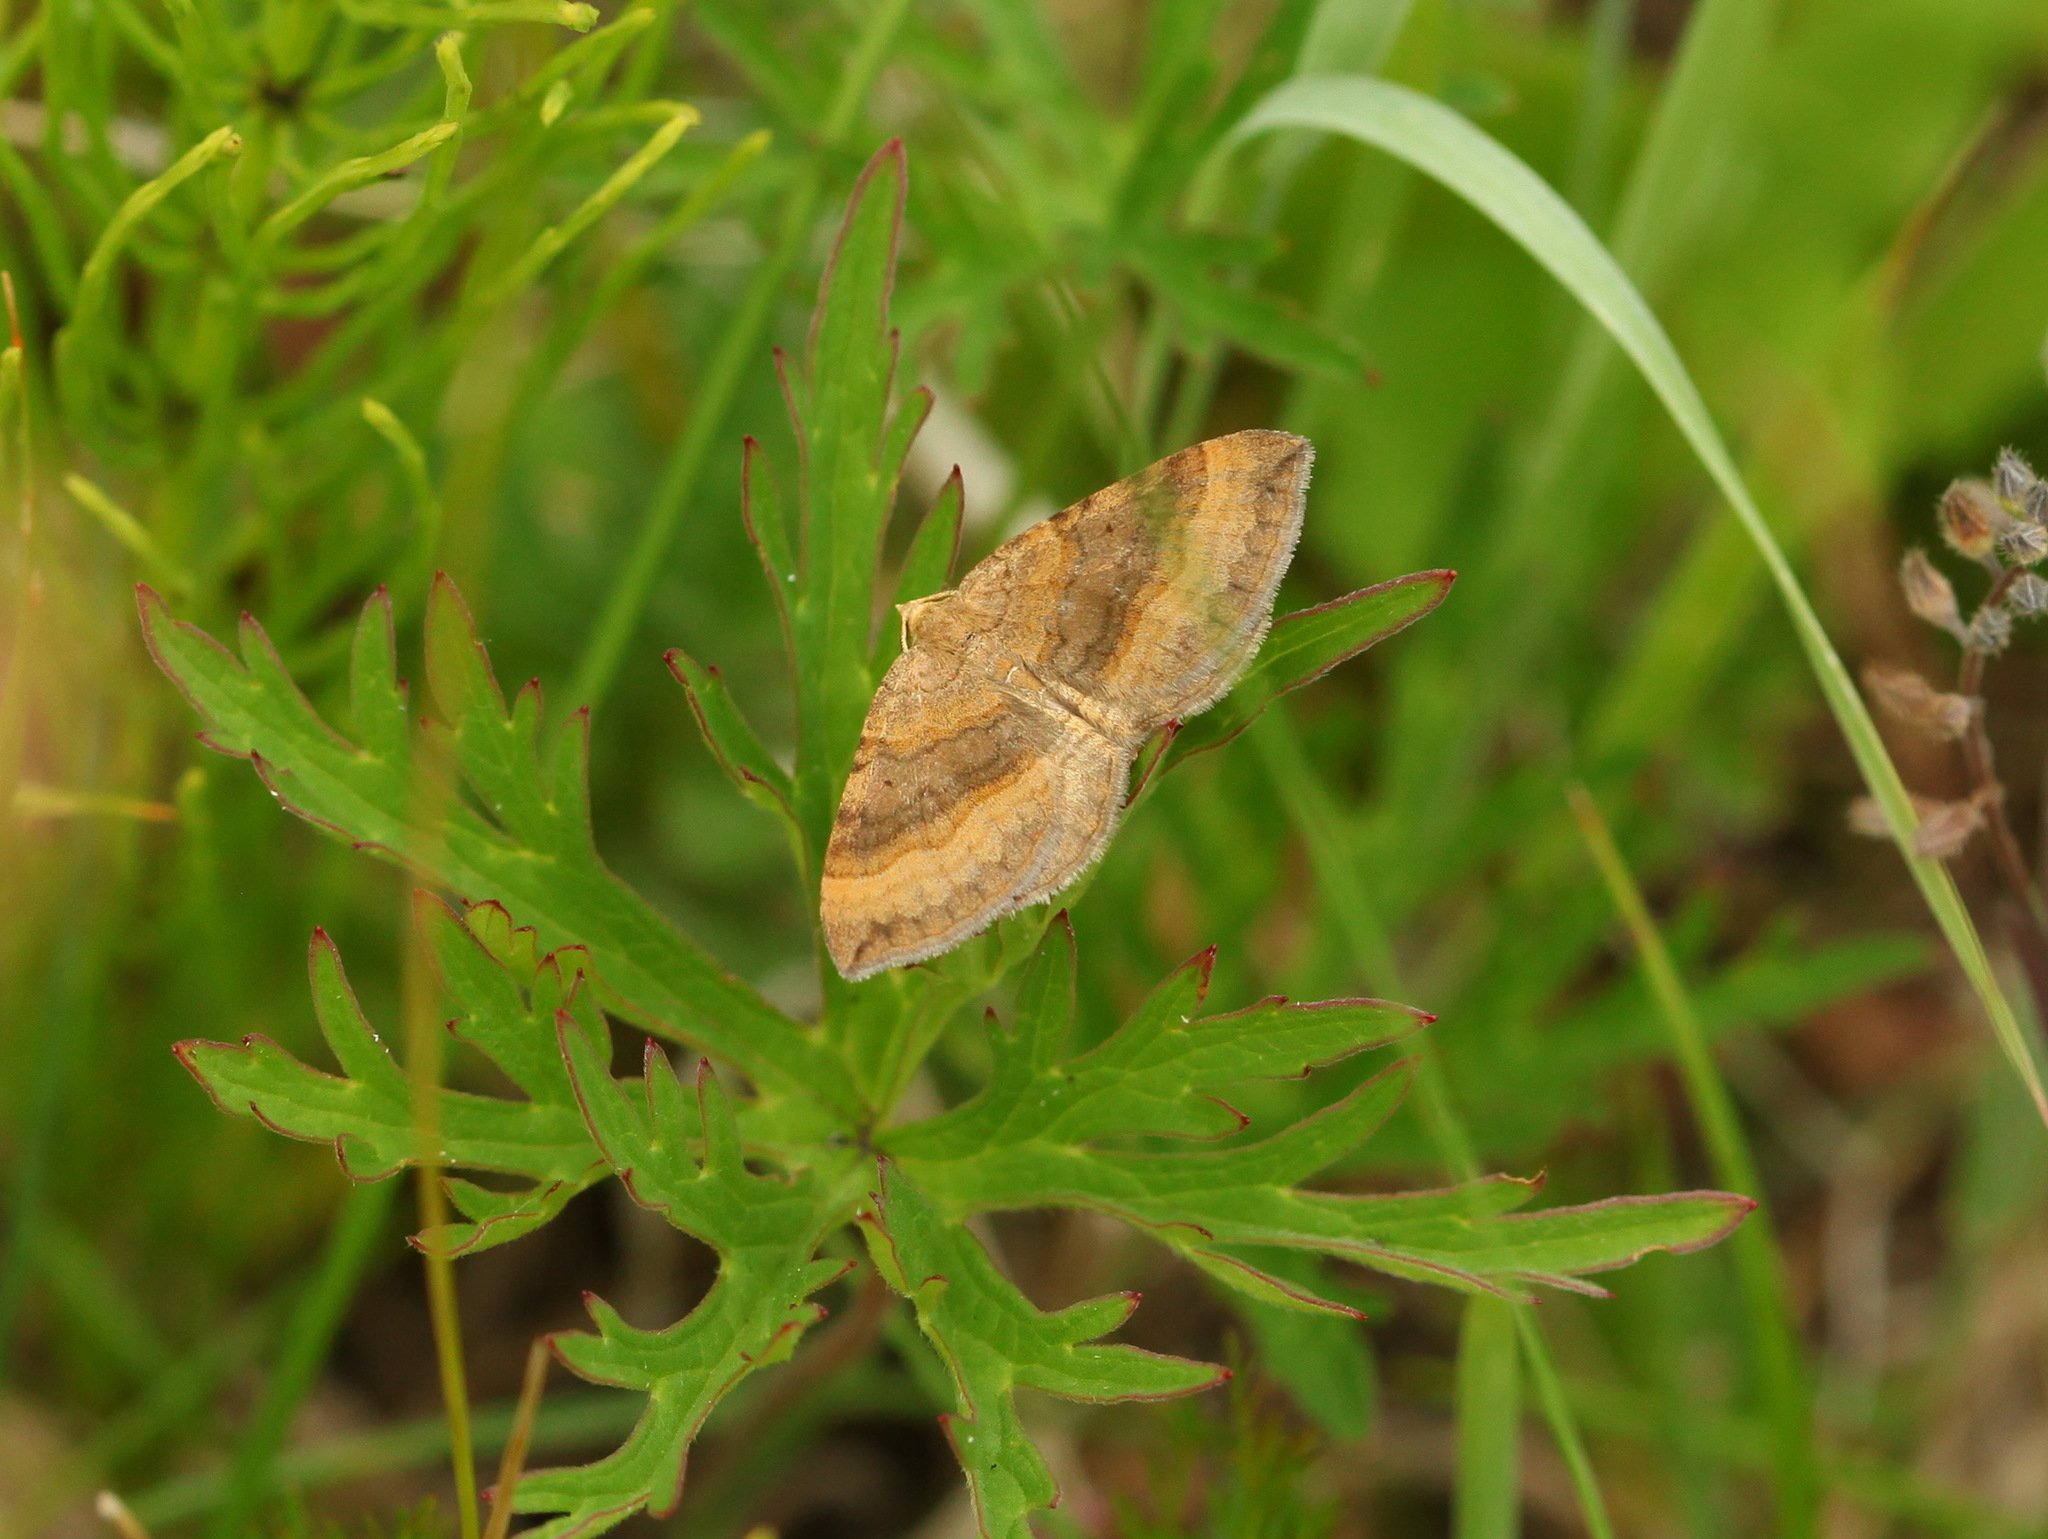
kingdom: Animalia
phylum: Arthropoda
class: Insecta
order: Lepidoptera
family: Geometridae
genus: Scotopteryx
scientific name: Scotopteryx chenopodiata
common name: Shaded broad-bar
